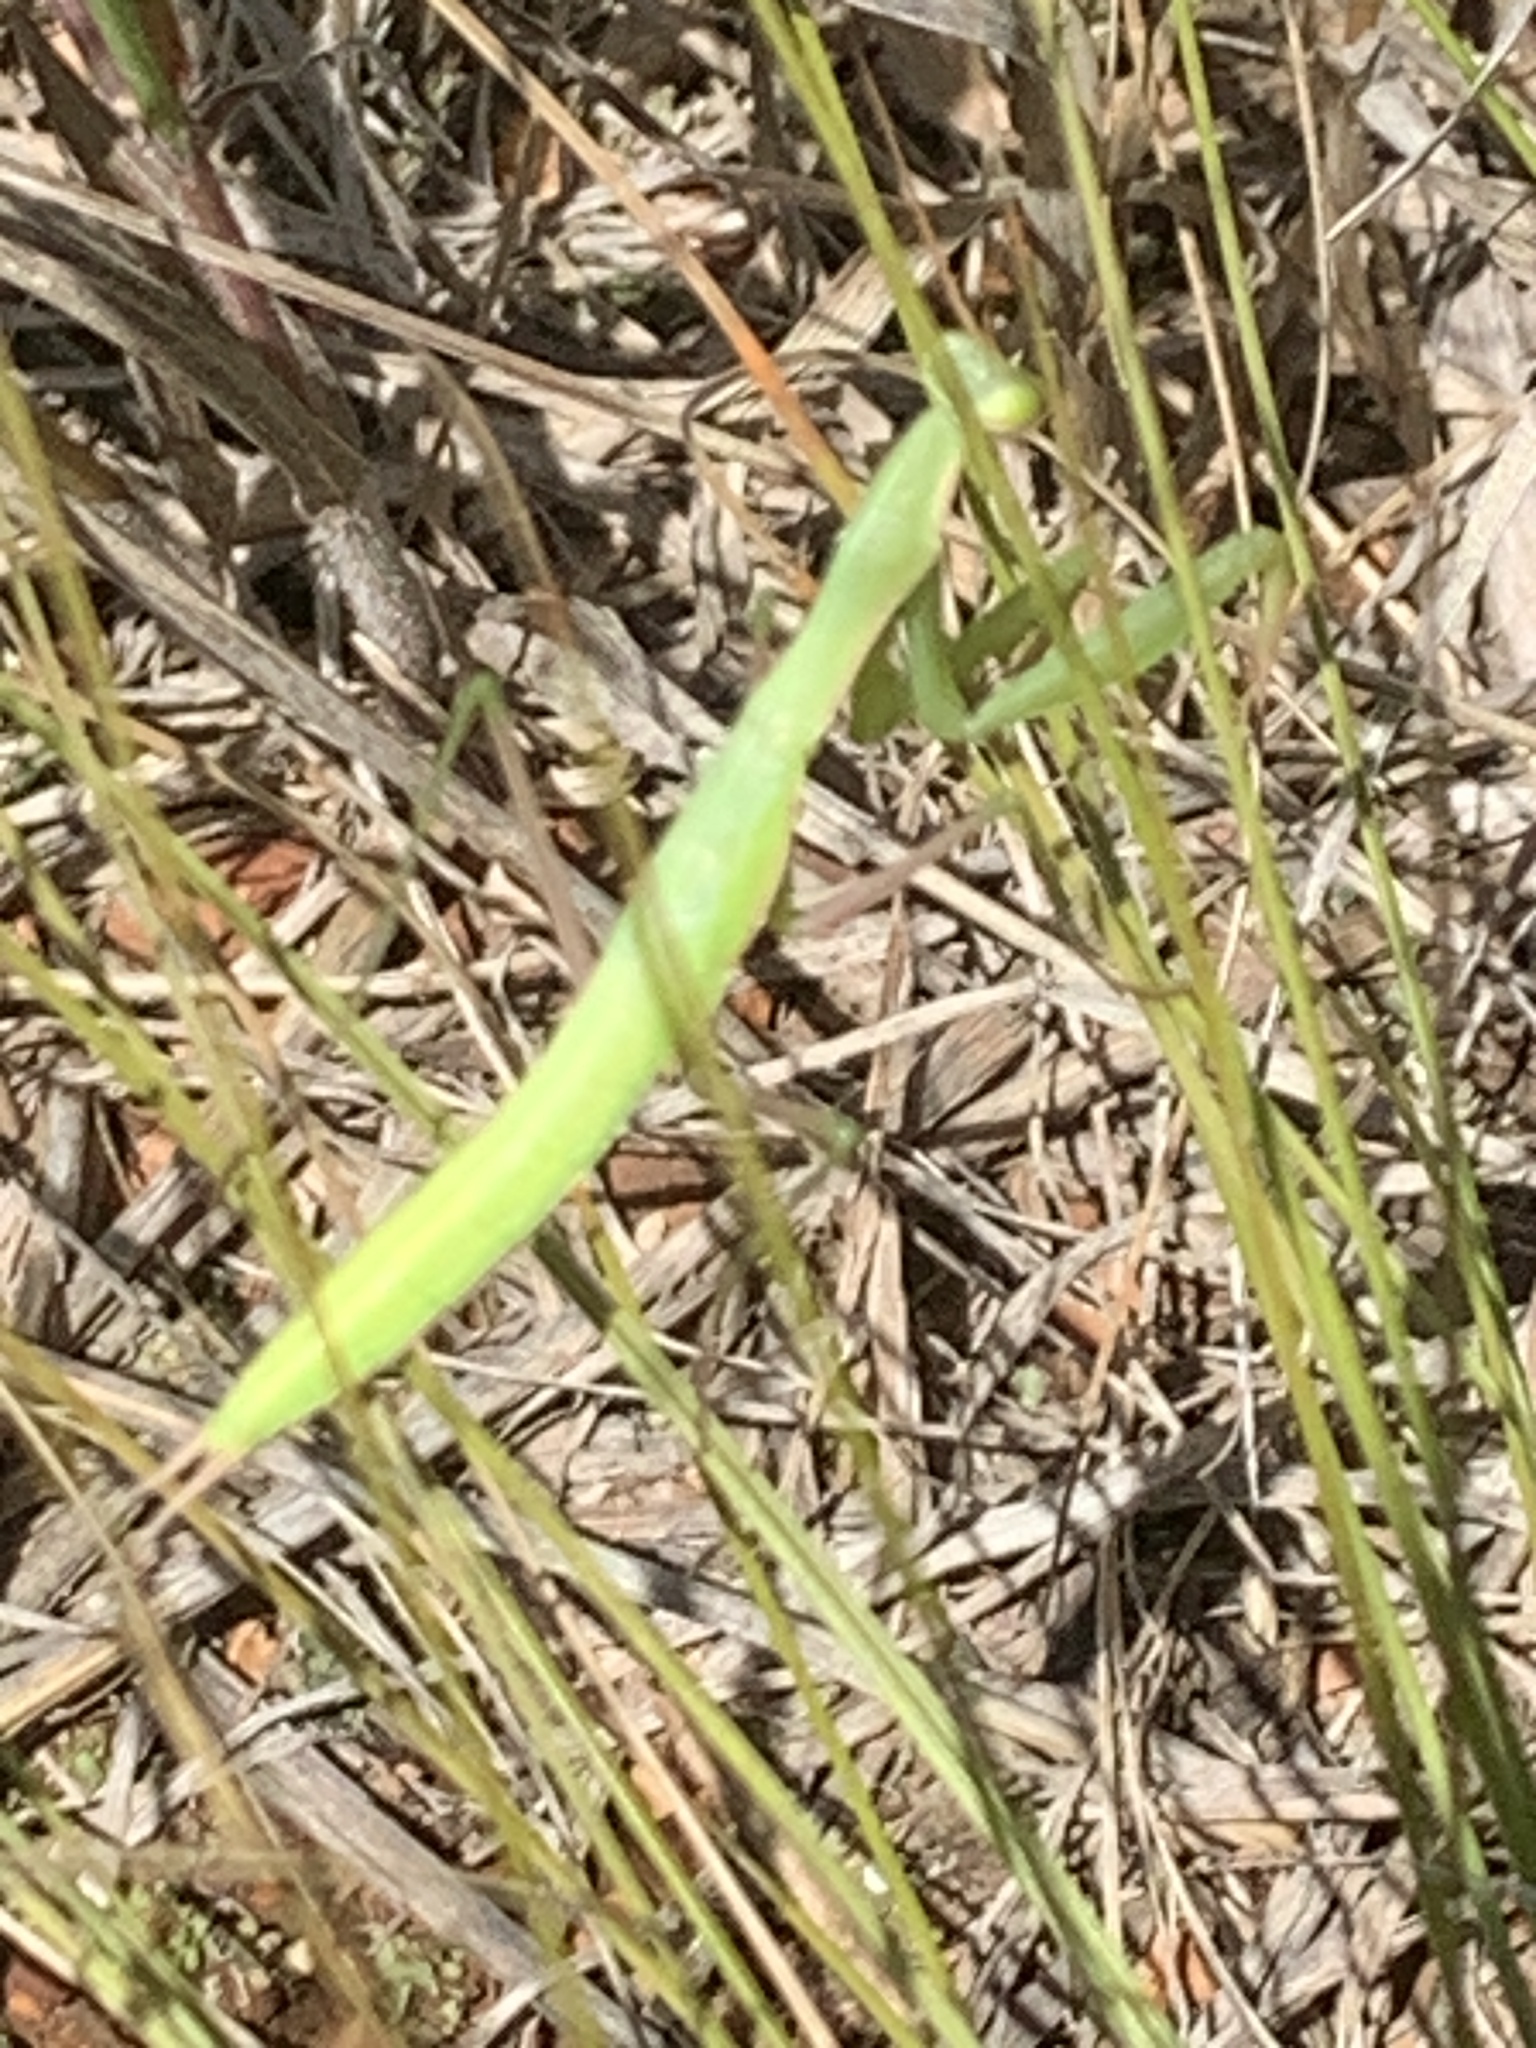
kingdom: Animalia
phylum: Arthropoda
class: Insecta
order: Mantodea
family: Mantidae
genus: Mantis
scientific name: Mantis religiosa
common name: Praying mantis
